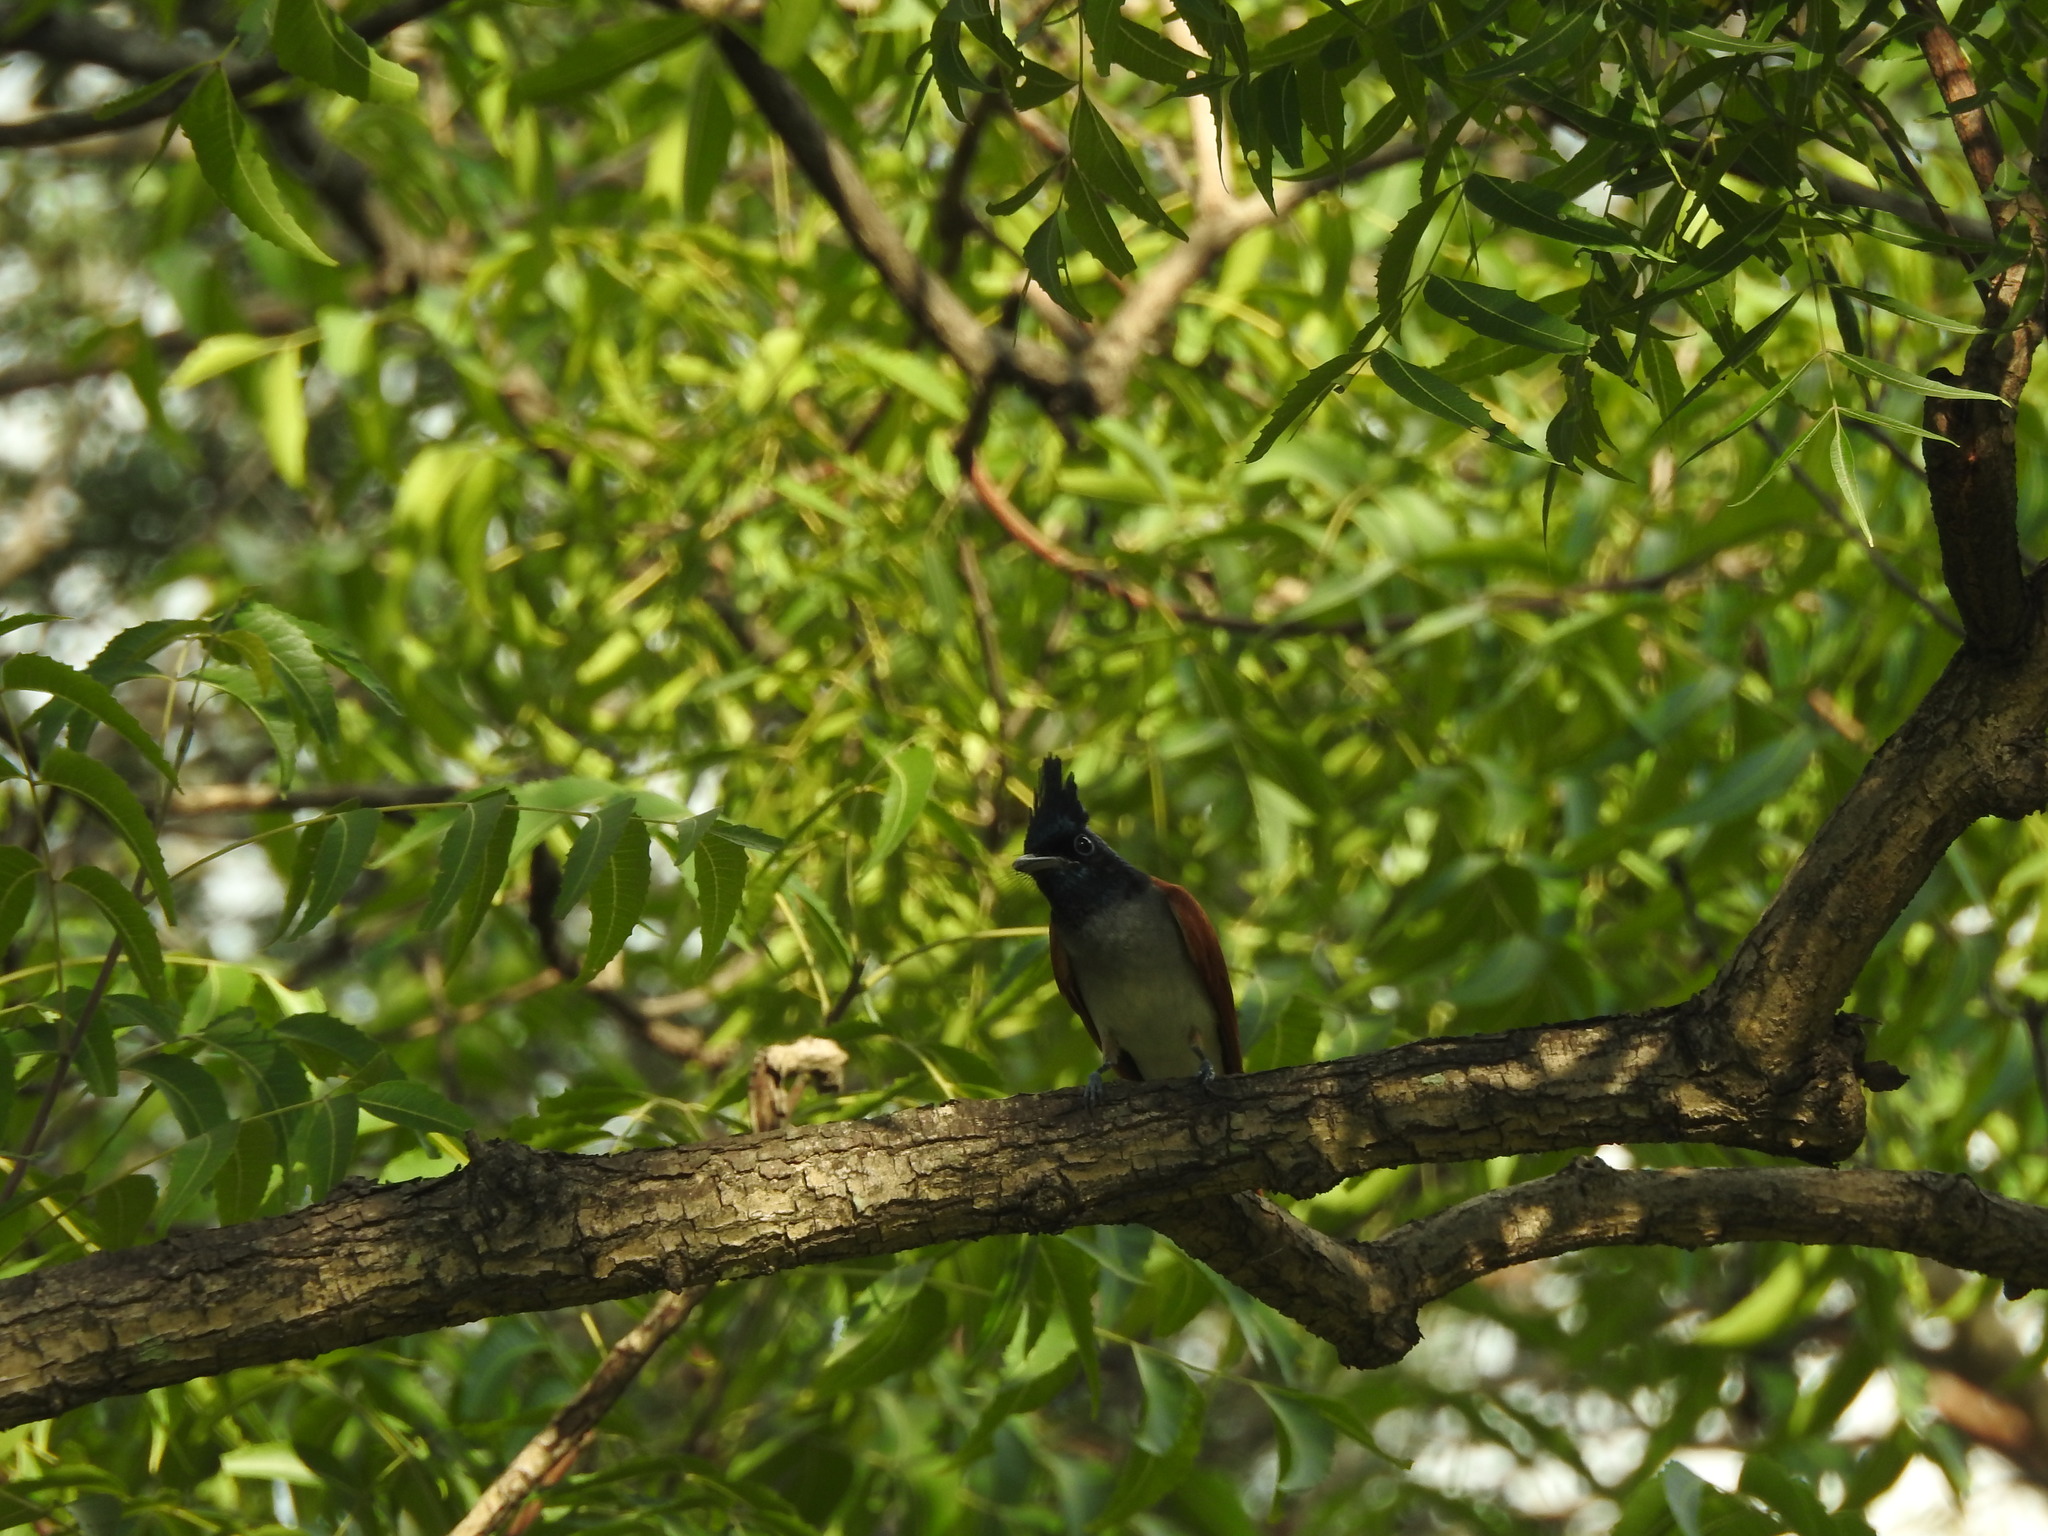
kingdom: Animalia
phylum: Chordata
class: Aves
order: Passeriformes
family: Monarchidae
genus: Terpsiphone
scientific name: Terpsiphone paradisi
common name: Indian paradise flycatcher
